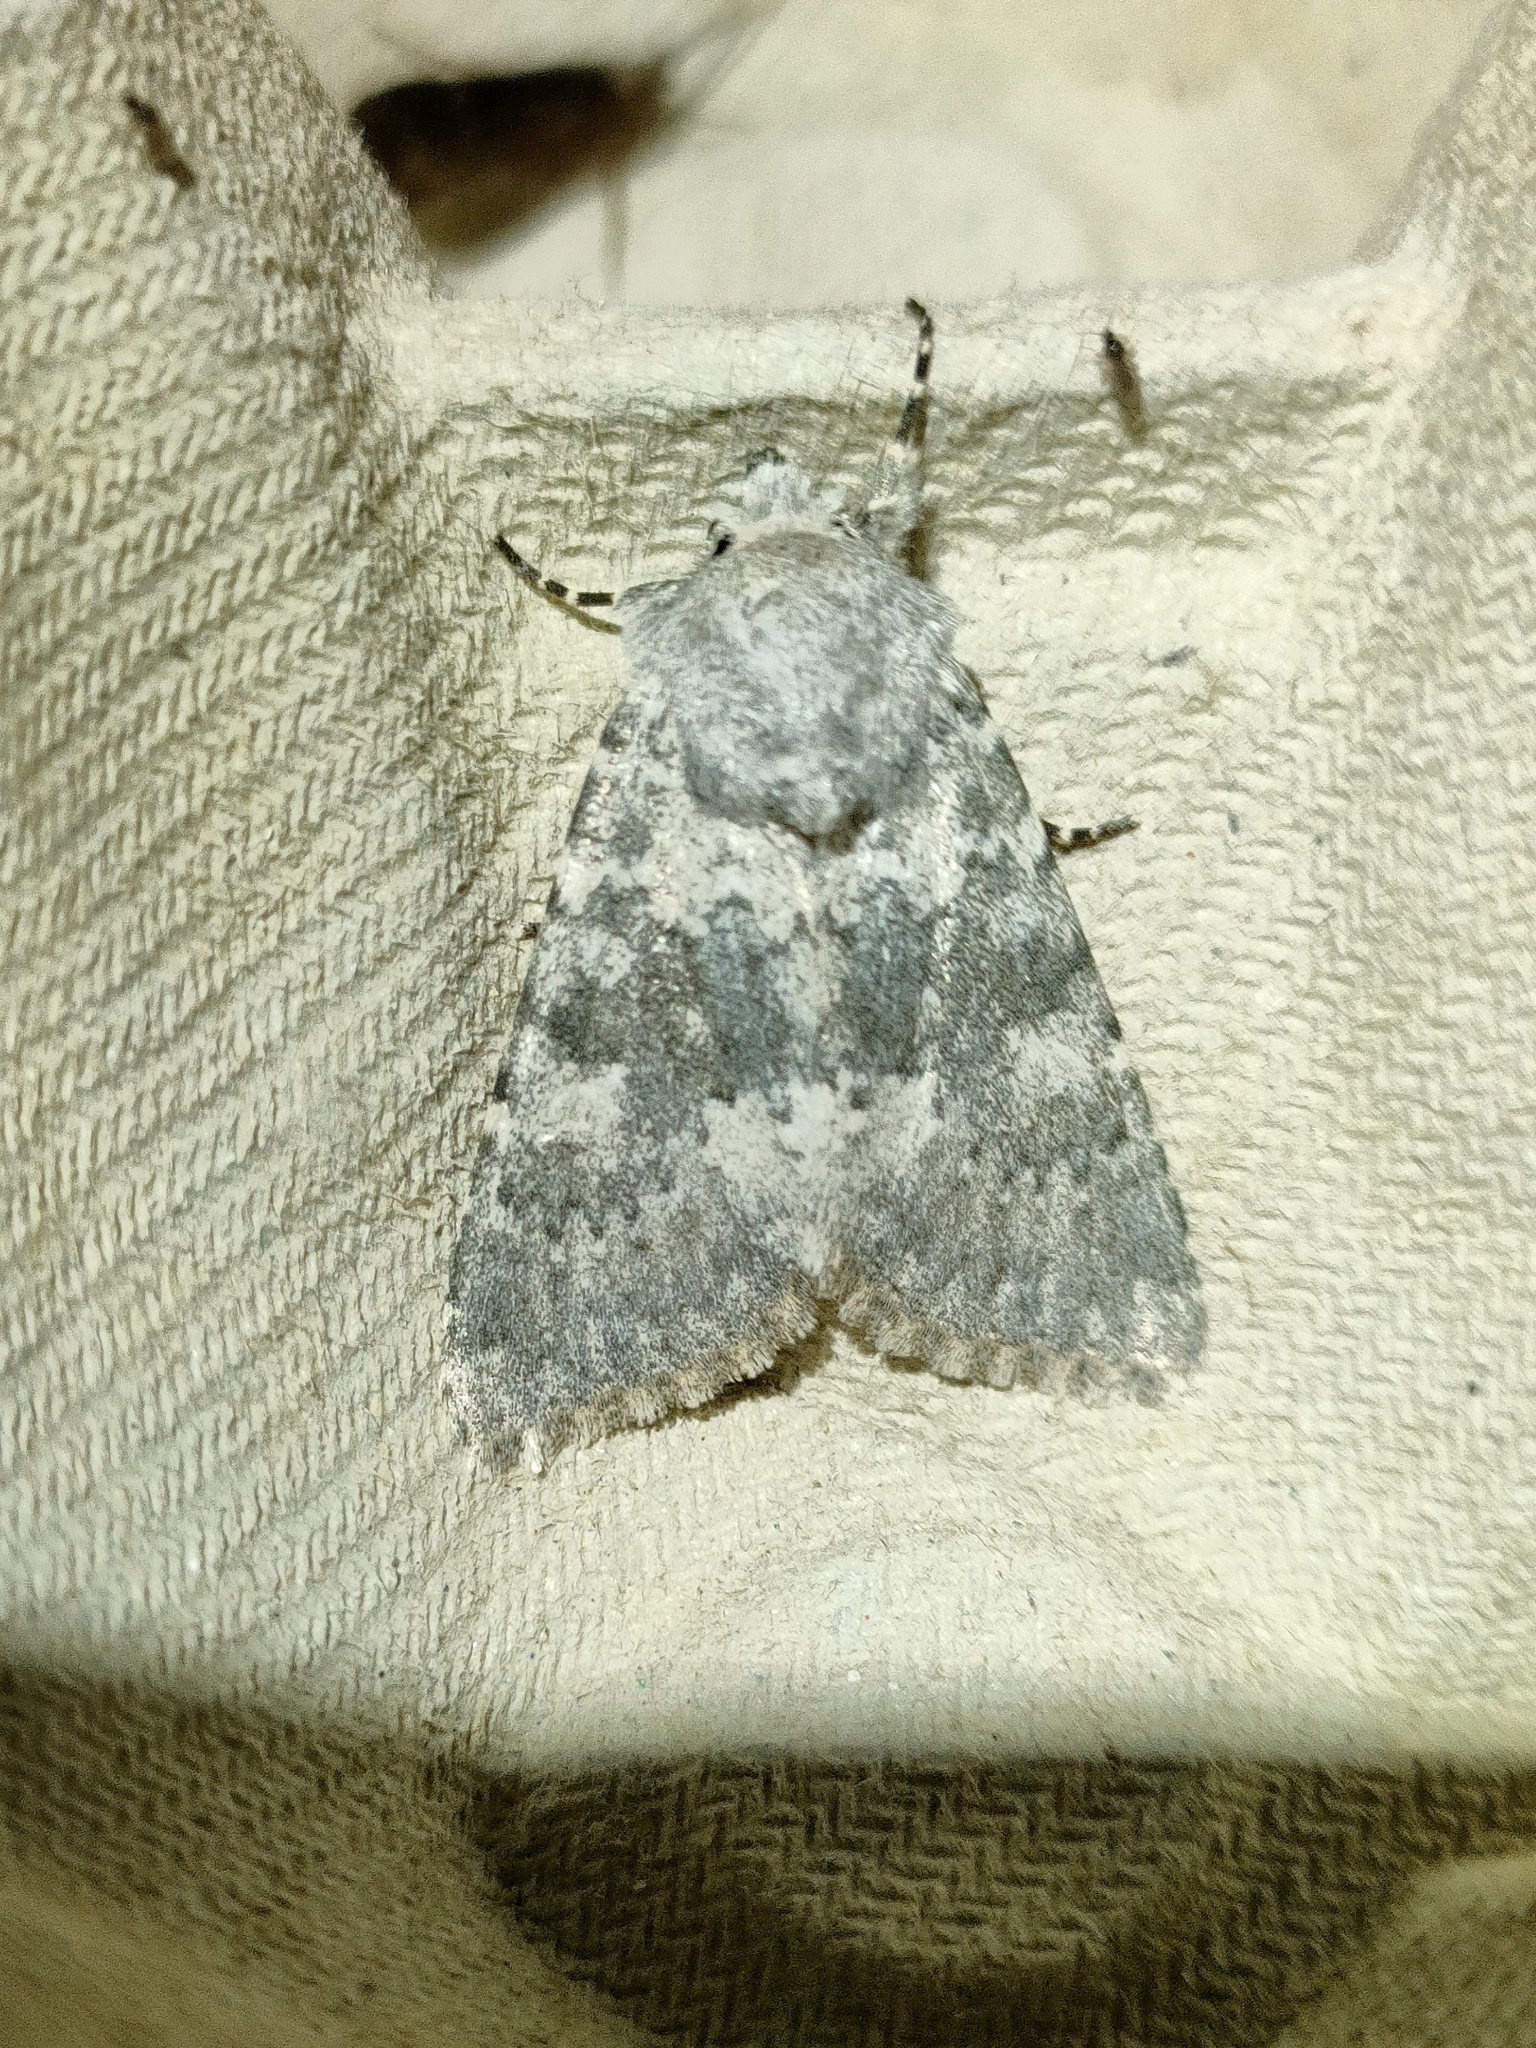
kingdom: Animalia
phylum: Arthropoda
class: Insecta
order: Lepidoptera
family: Noctuidae
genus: Polymixis
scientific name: Polymixis dubia
